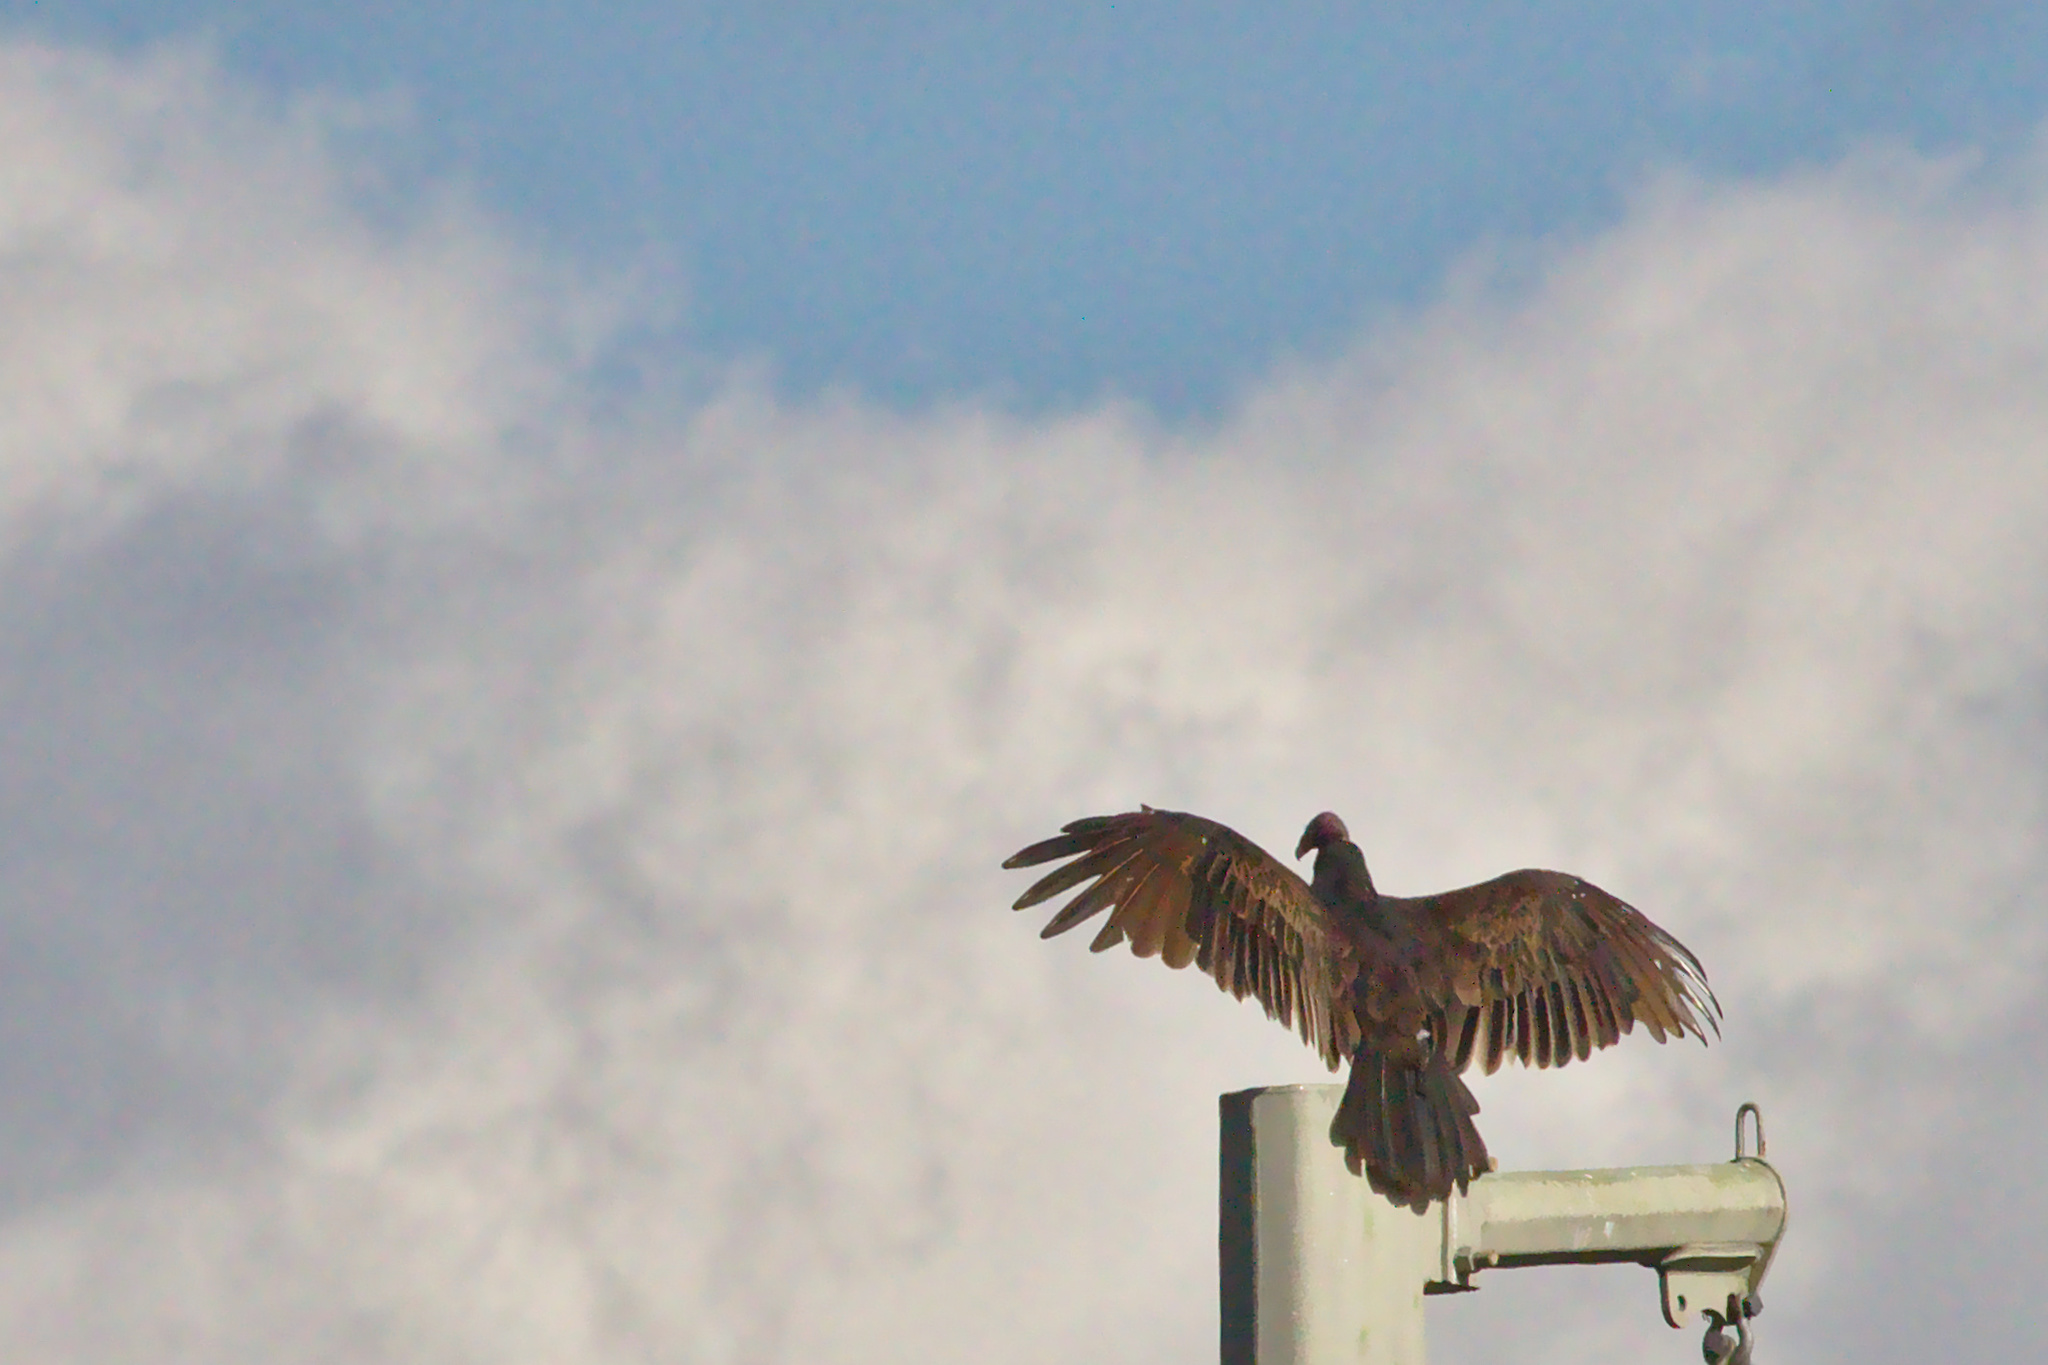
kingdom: Animalia
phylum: Chordata
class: Aves
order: Accipitriformes
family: Cathartidae
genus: Cathartes
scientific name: Cathartes aura
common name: Turkey vulture
